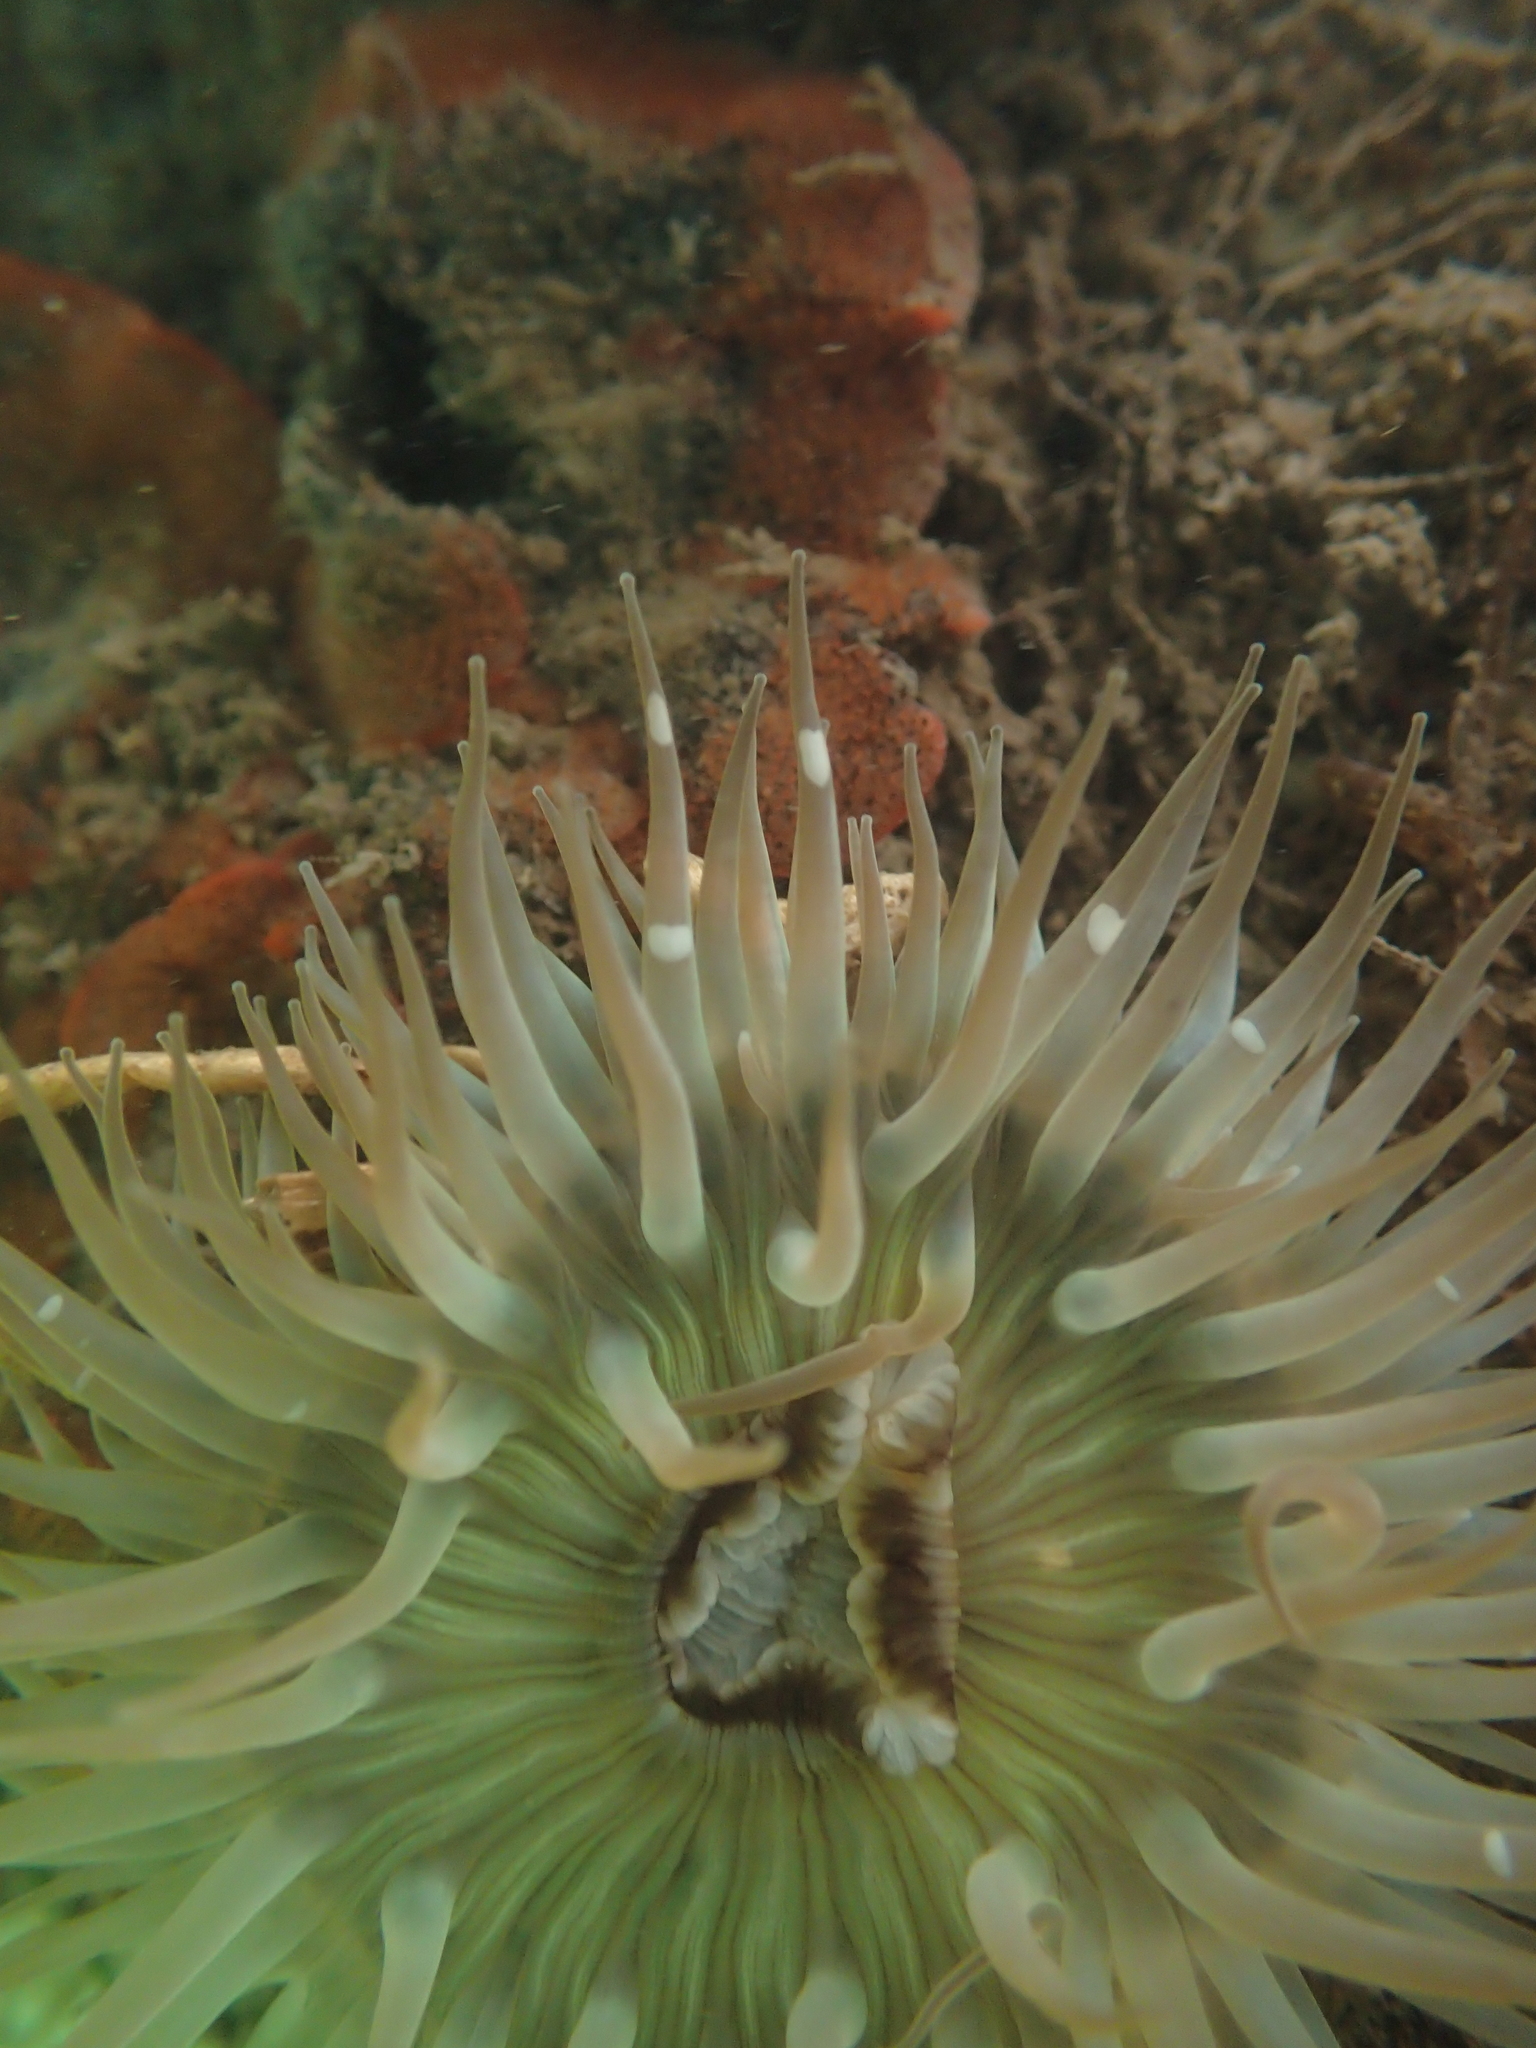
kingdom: Animalia
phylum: Cnidaria
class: Anthozoa
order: Actiniaria
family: Actiniidae
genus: Anthopleura
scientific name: Anthopleura sola
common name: Sun anemone
